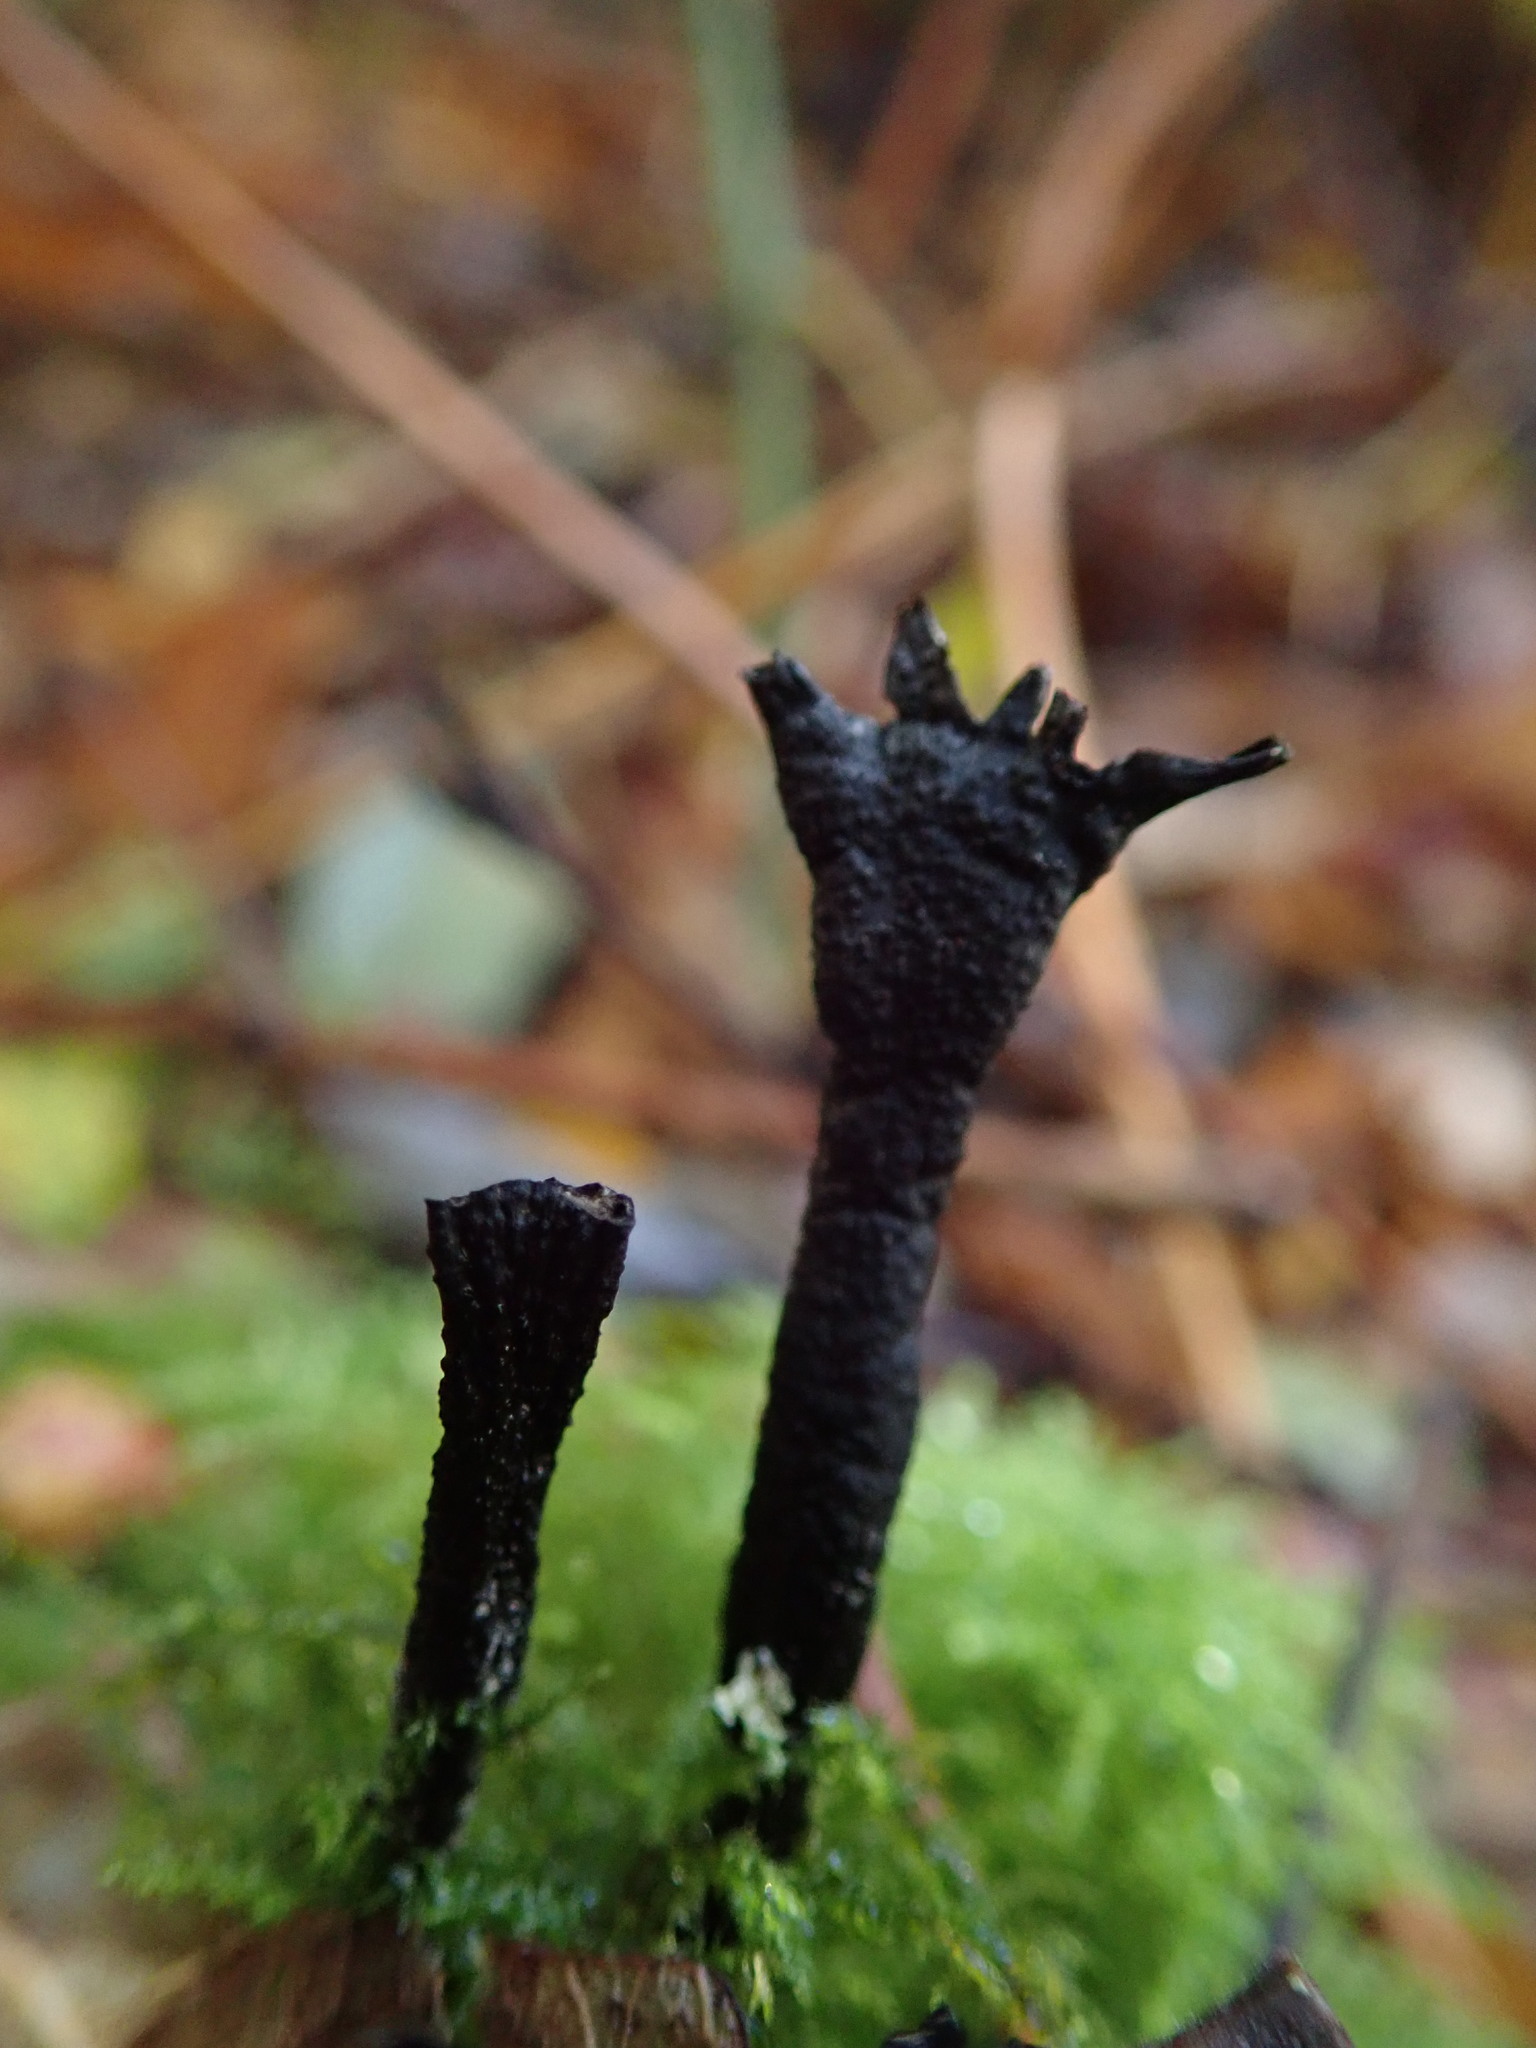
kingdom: Fungi
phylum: Ascomycota
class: Sordariomycetes
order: Xylariales
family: Xylariaceae
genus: Xylaria
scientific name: Xylaria hypoxylon
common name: Candle-snuff fungus
